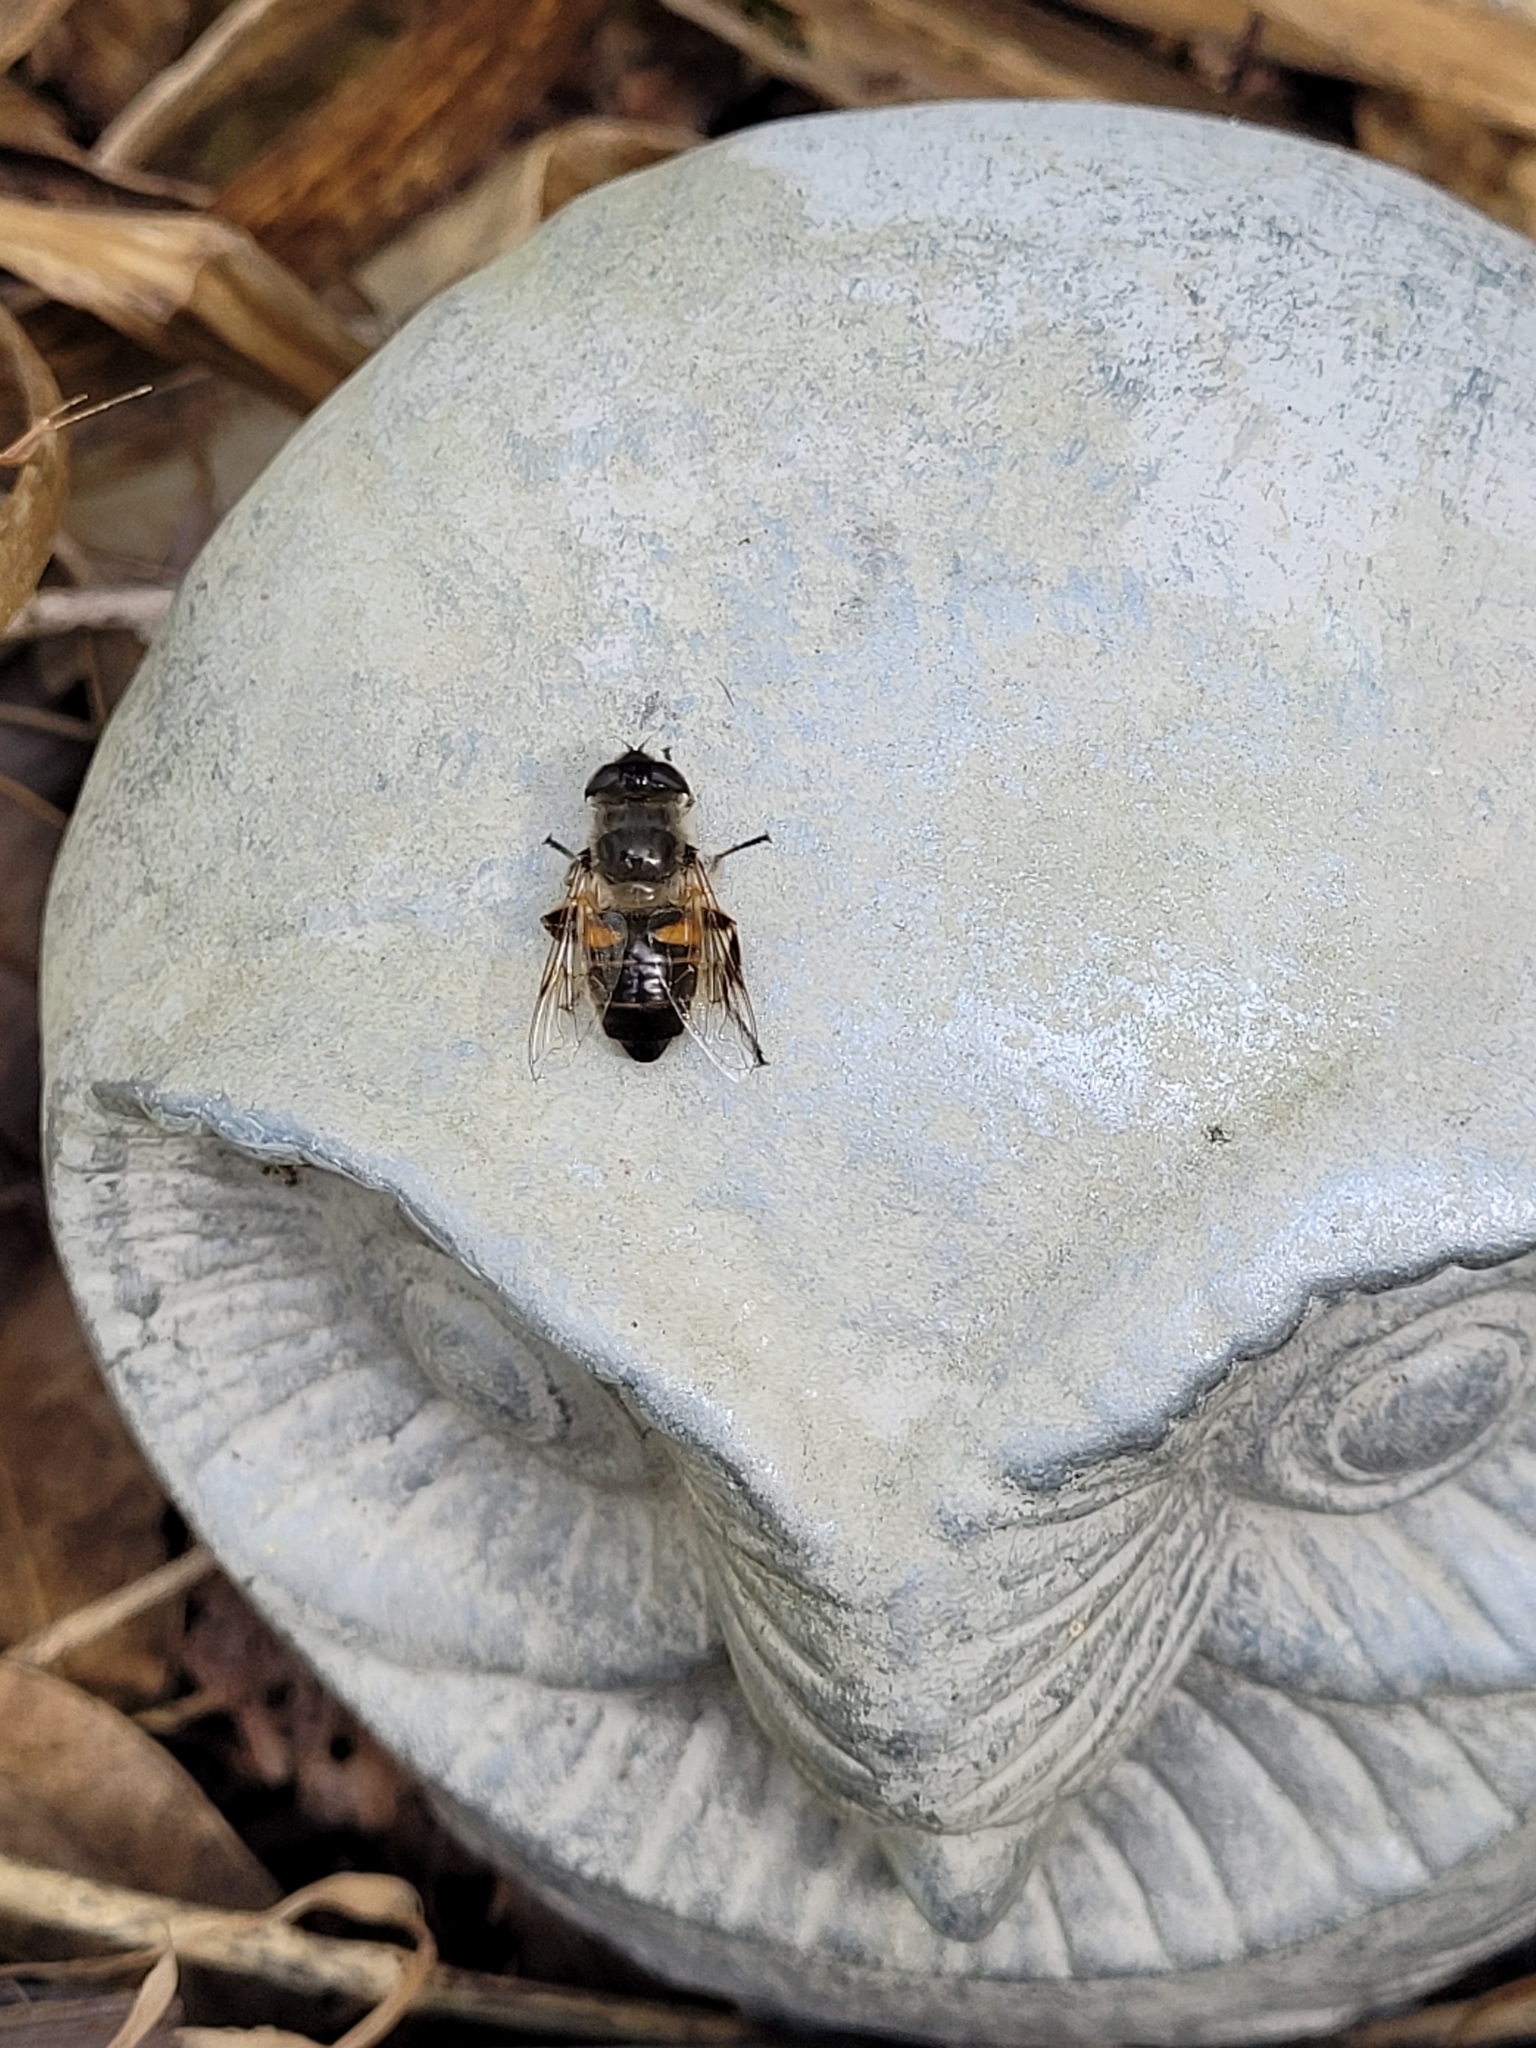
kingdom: Animalia
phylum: Arthropoda
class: Insecta
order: Diptera
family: Syrphidae
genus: Eristalis
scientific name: Eristalis tenax
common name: Drone fly
